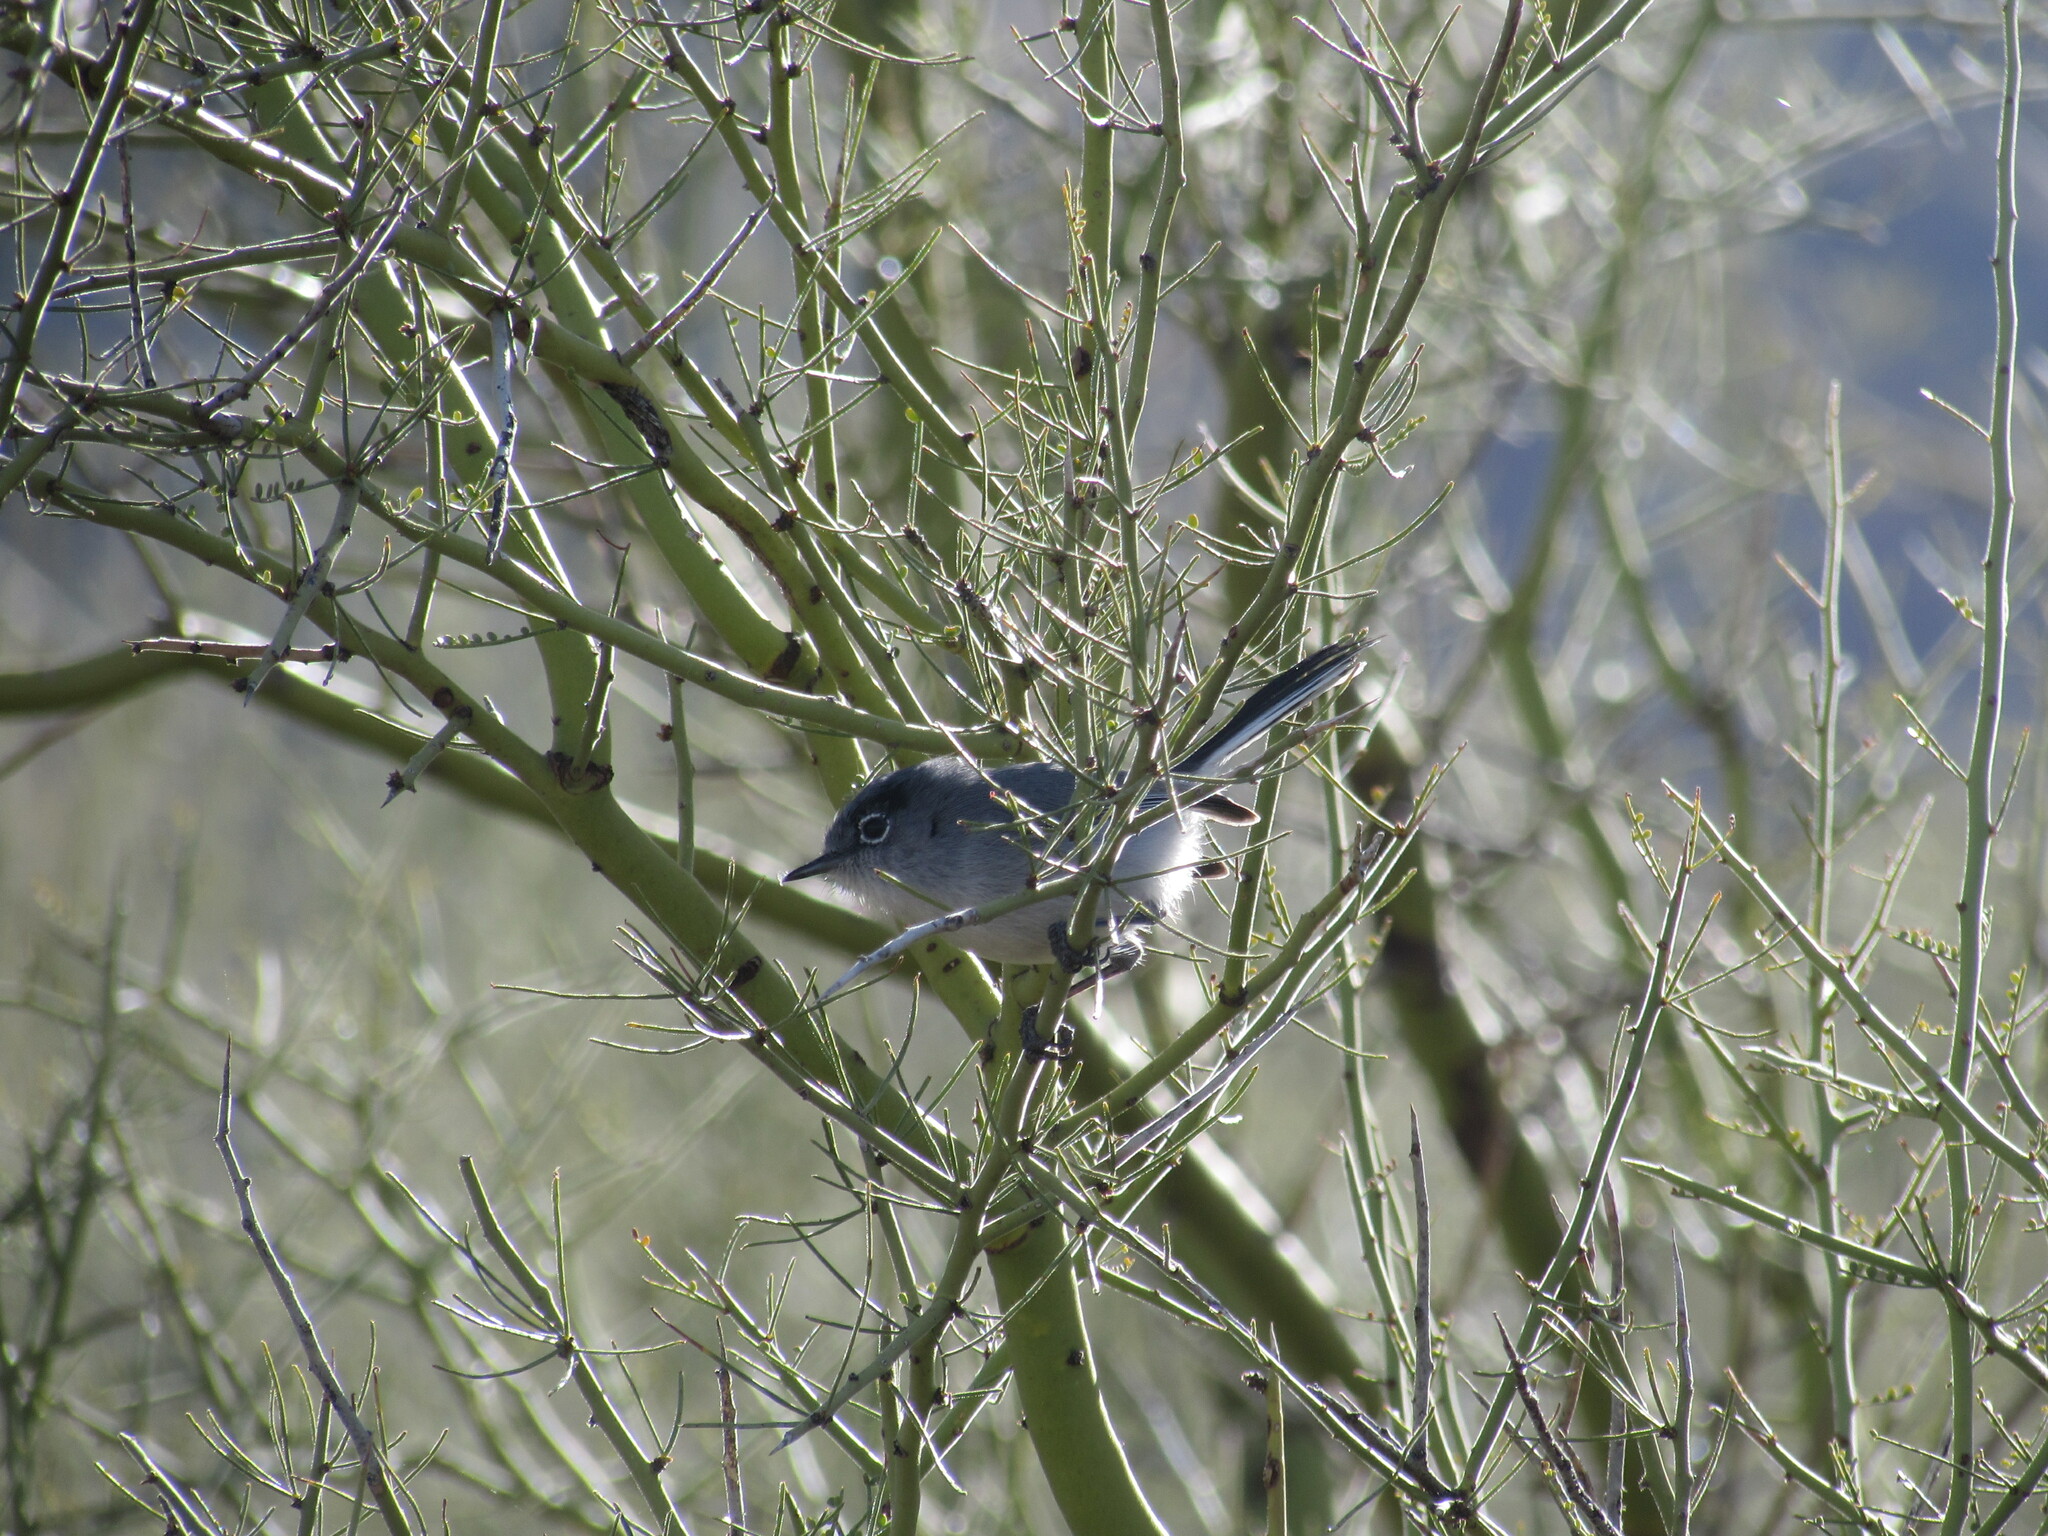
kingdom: Animalia
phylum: Chordata
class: Aves
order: Passeriformes
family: Polioptilidae
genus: Polioptila
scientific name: Polioptila caerulea
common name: Blue-gray gnatcatcher
